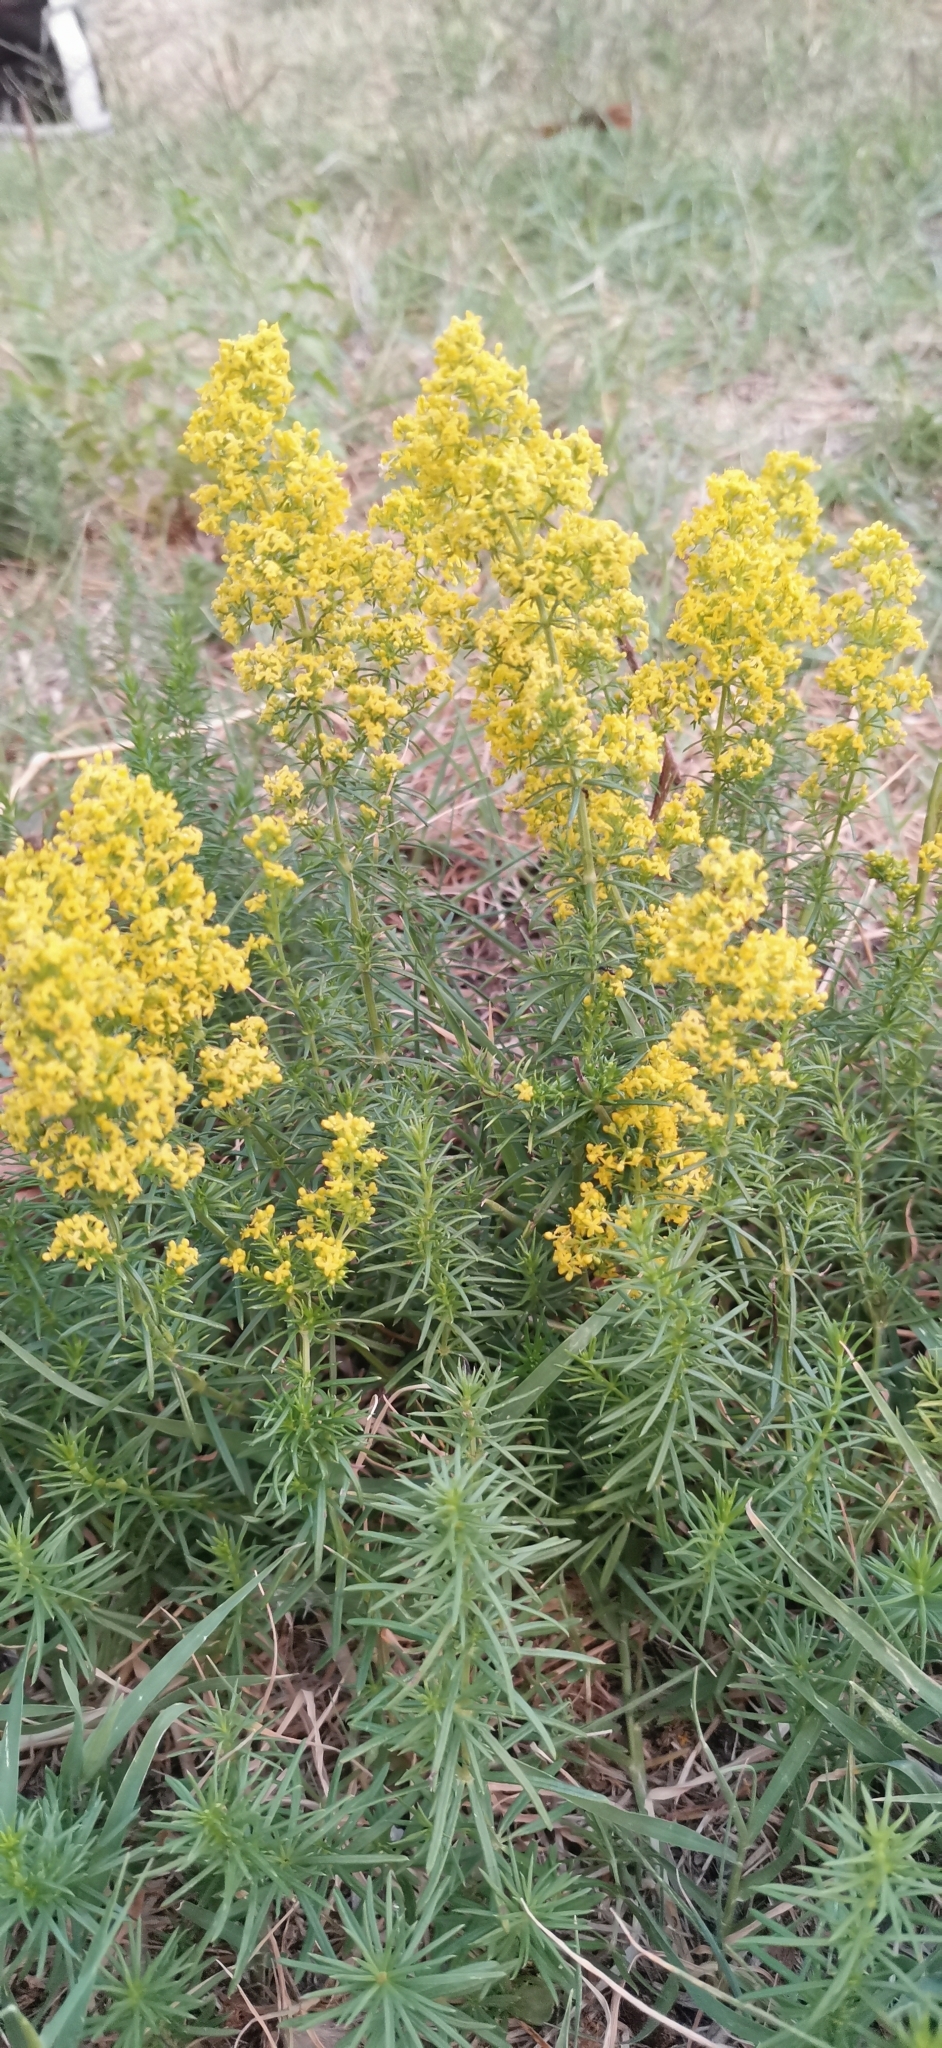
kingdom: Plantae
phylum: Tracheophyta
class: Magnoliopsida
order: Gentianales
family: Rubiaceae
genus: Galium
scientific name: Galium verum
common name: Lady's bedstraw
